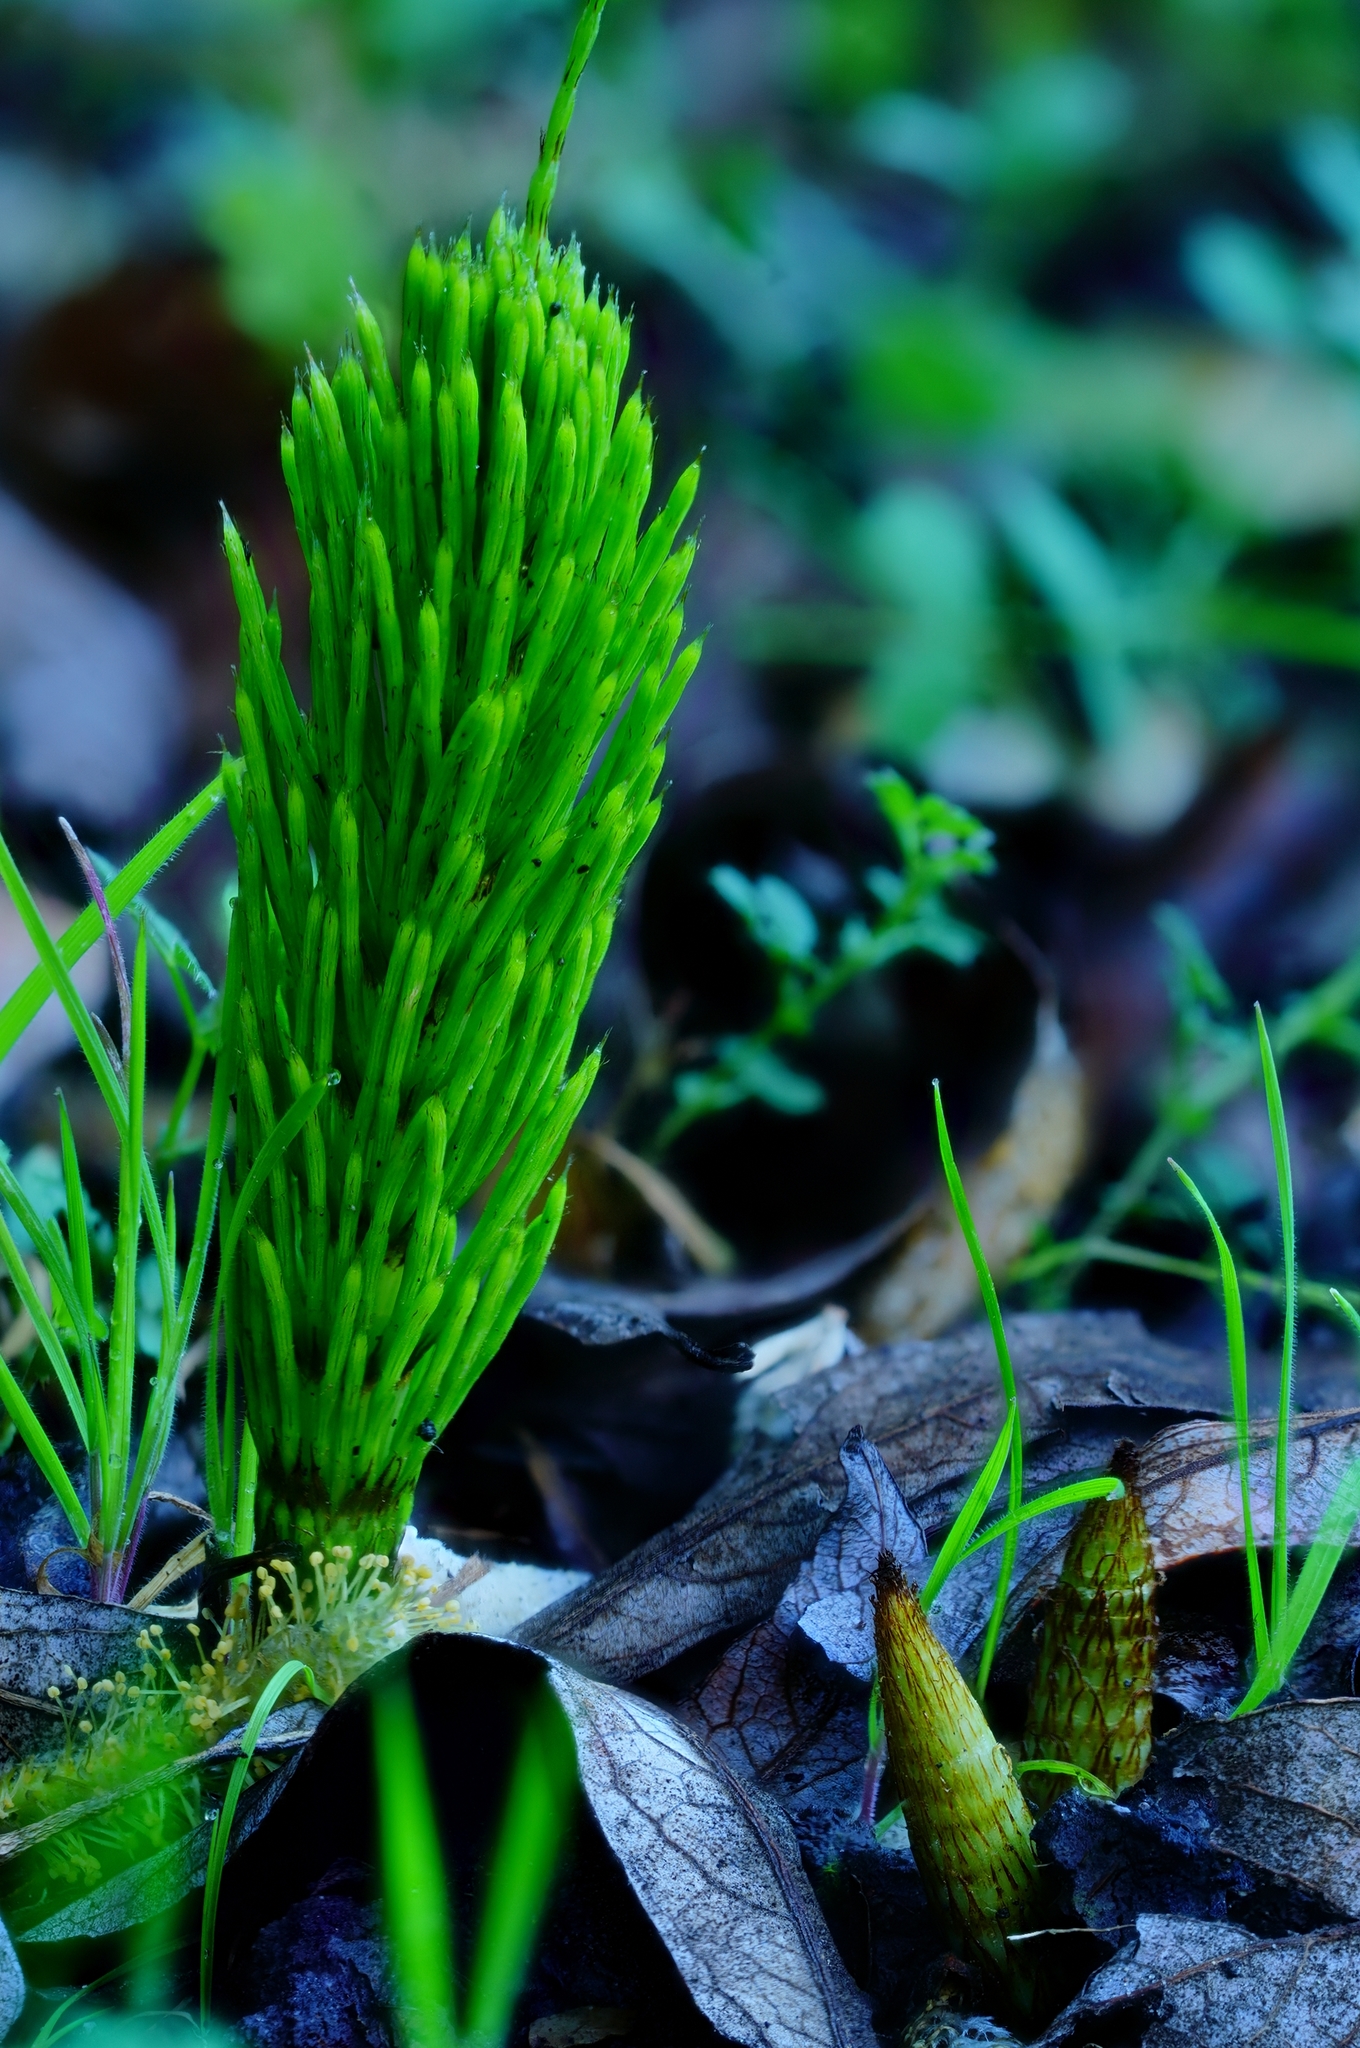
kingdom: Plantae
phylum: Tracheophyta
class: Polypodiopsida
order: Equisetales
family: Equisetaceae
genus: Equisetum
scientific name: Equisetum braunii
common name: Braun's horsetail
